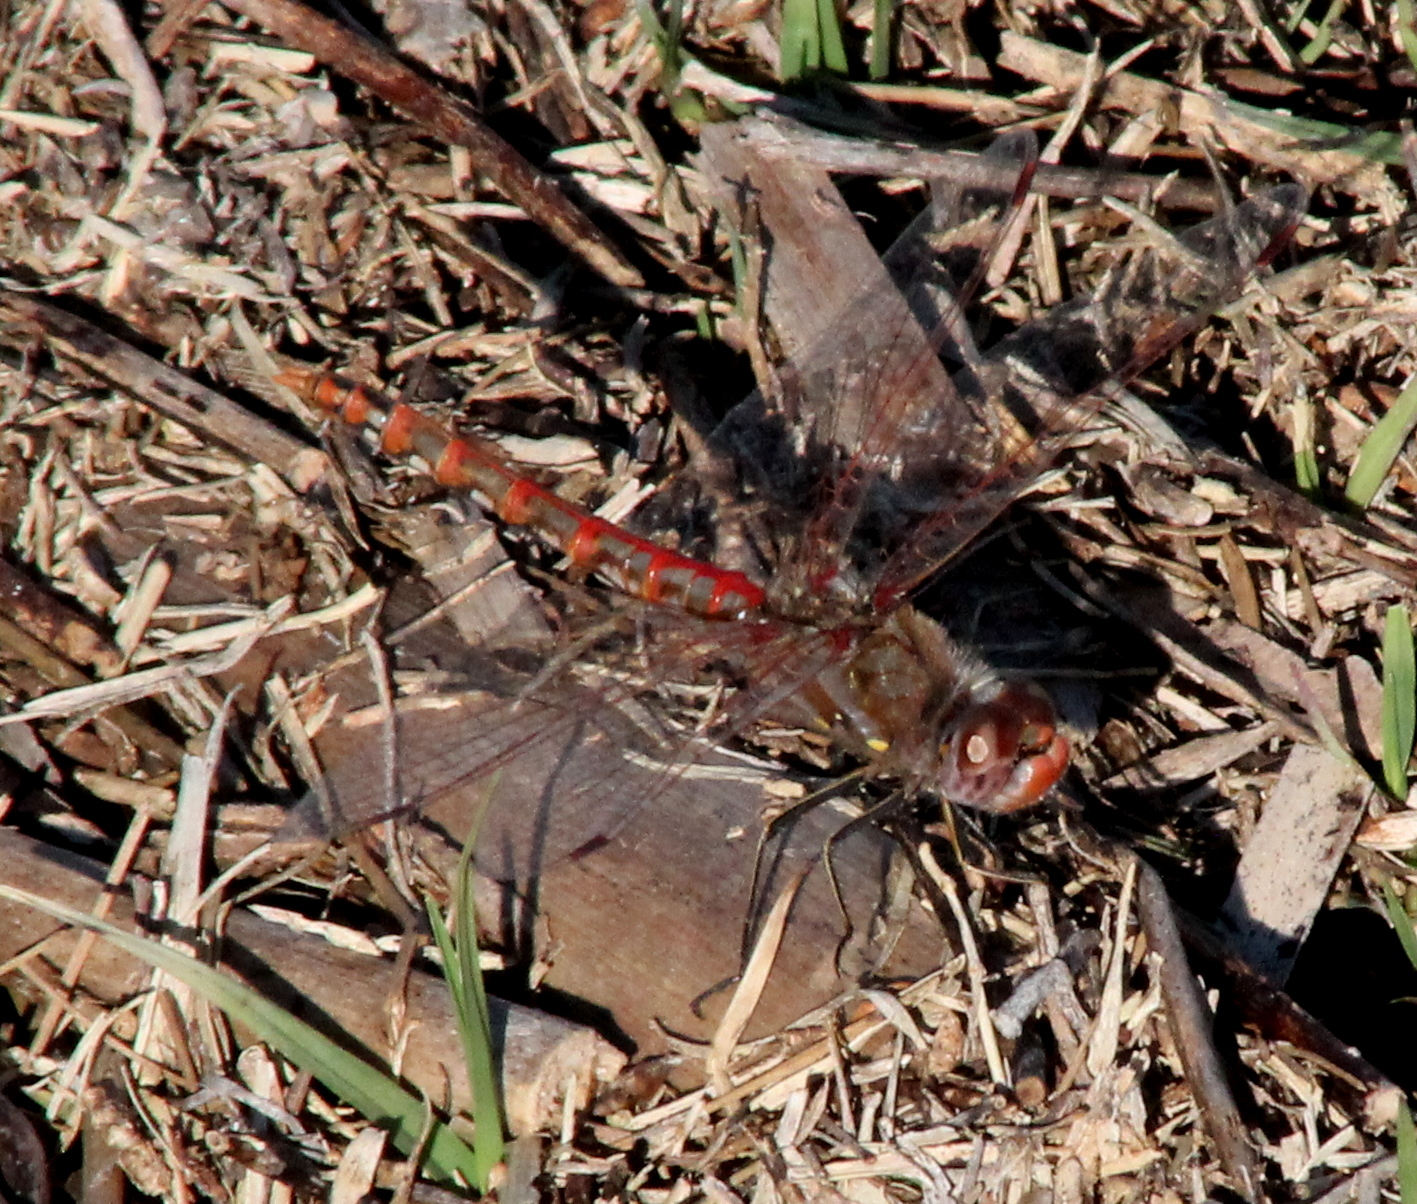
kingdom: Animalia
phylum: Arthropoda
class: Insecta
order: Odonata
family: Libellulidae
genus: Sympetrum
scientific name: Sympetrum corruptum
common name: Variegated meadowhawk
